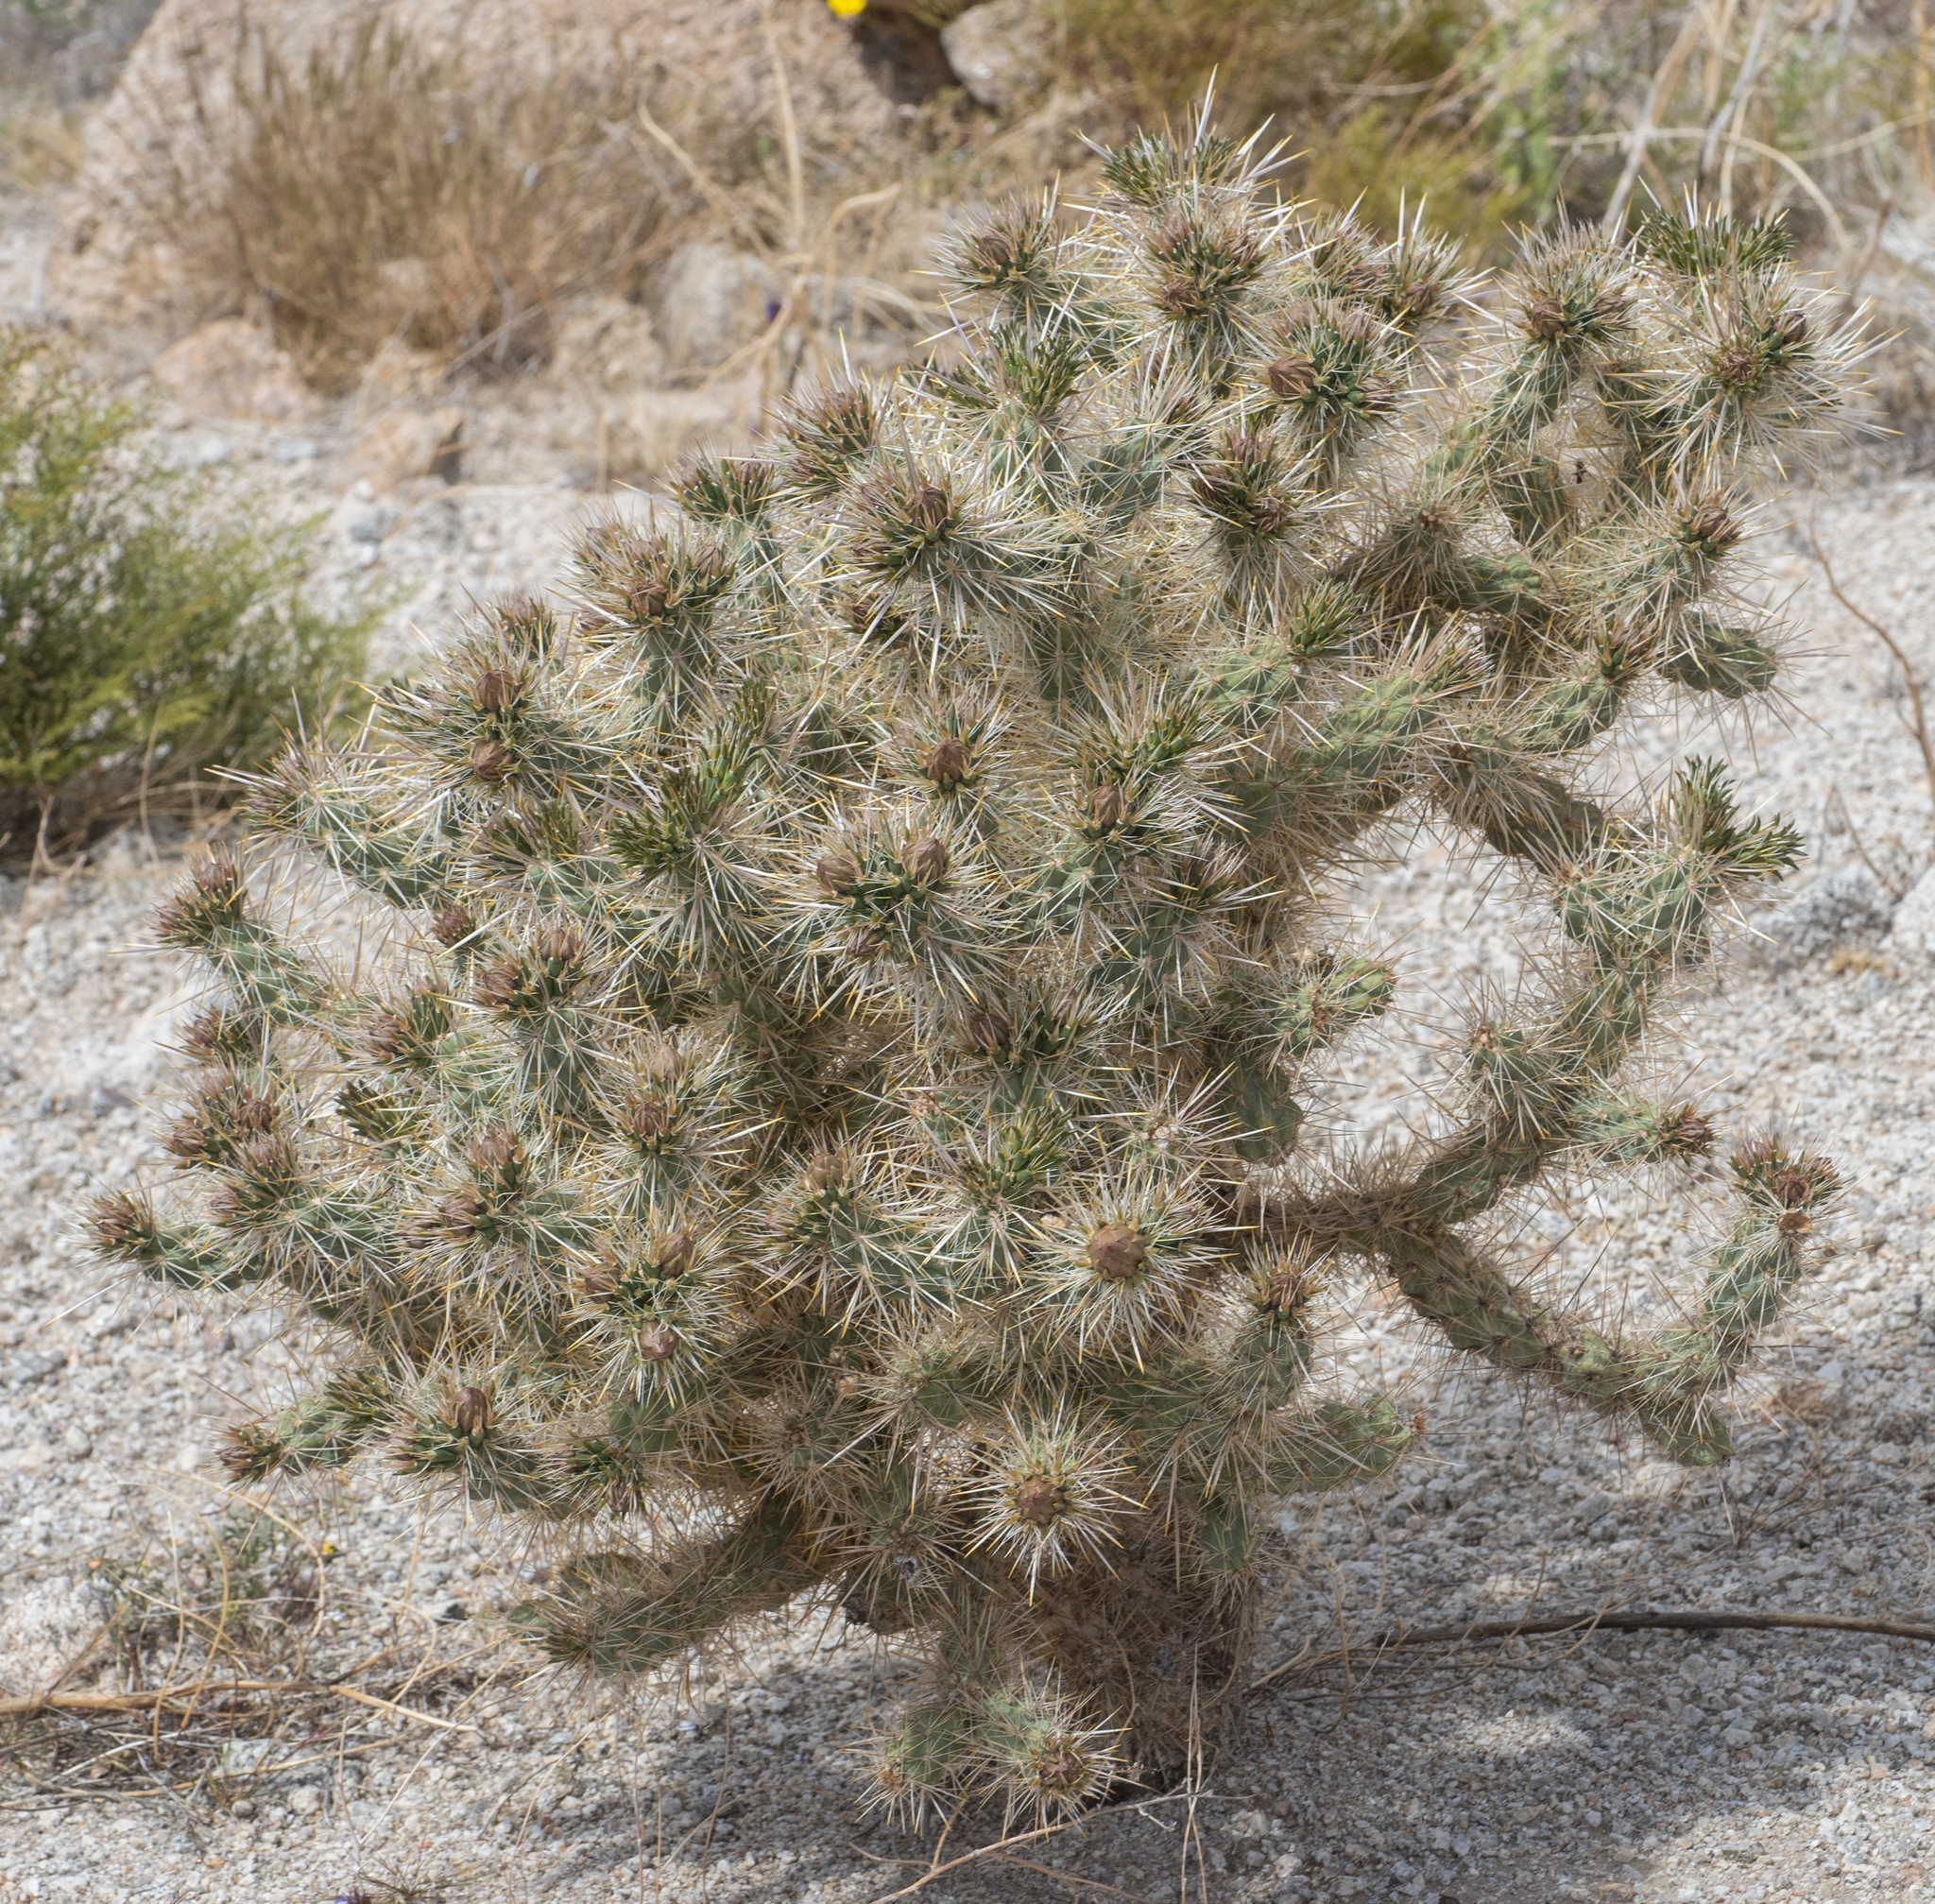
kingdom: Plantae
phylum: Tracheophyta
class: Magnoliopsida
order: Caryophyllales
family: Cactaceae
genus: Cylindropuntia
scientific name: Cylindropuntia echinocarpa
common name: Ground cholla
